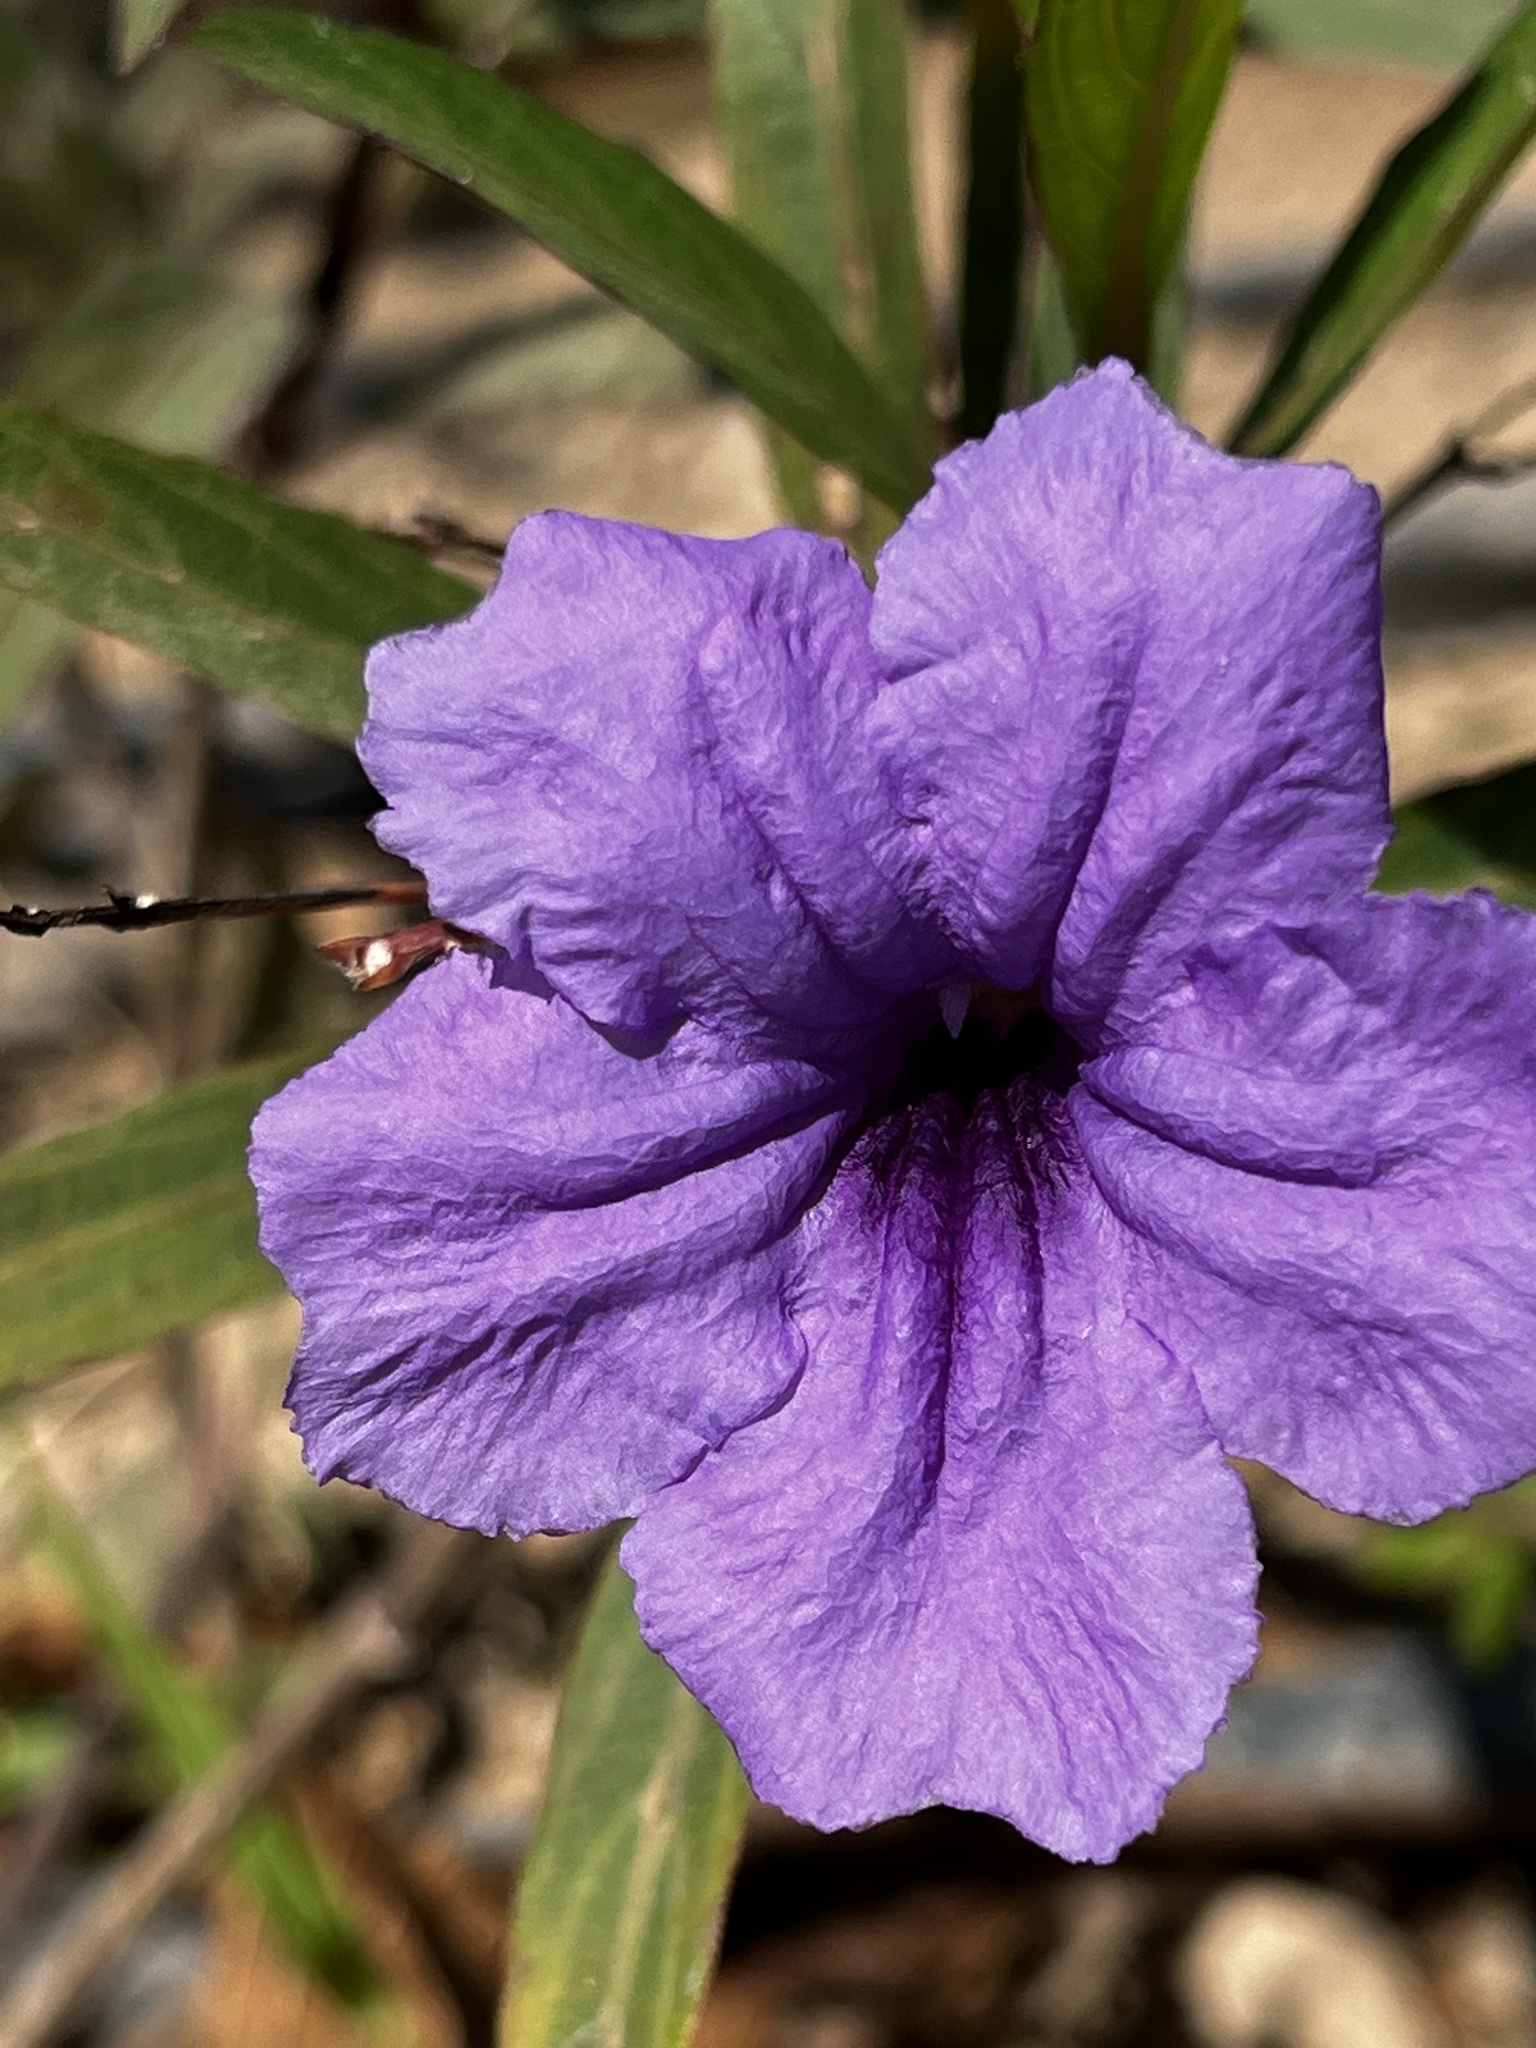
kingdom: Plantae
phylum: Tracheophyta
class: Magnoliopsida
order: Lamiales
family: Acanthaceae
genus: Ruellia
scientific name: Ruellia simplex
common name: Softseed wild petunia
